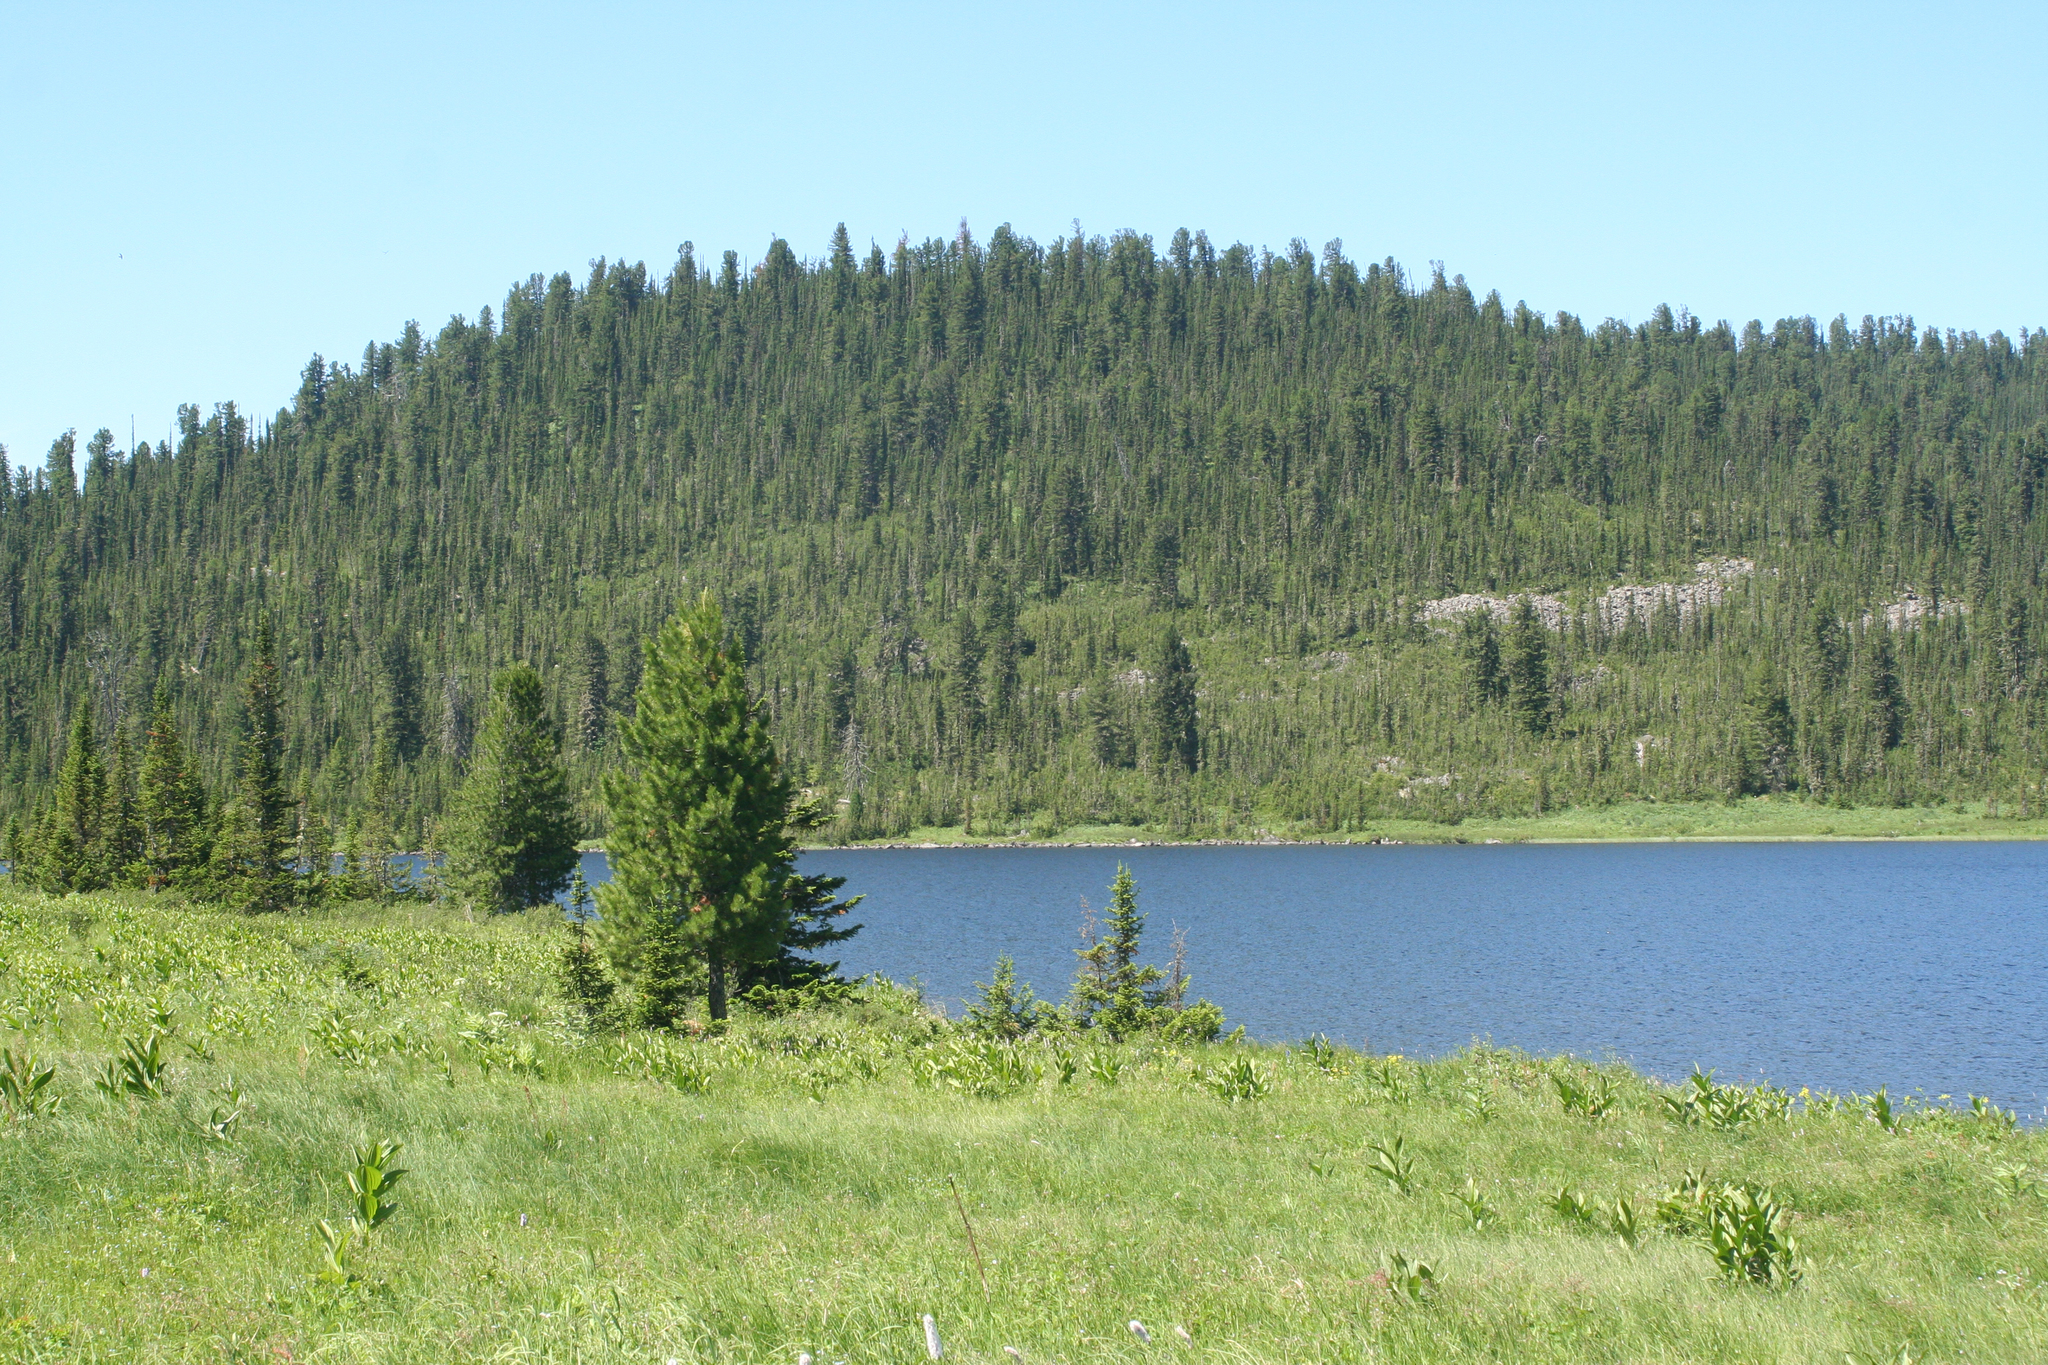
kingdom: Plantae
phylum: Tracheophyta
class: Pinopsida
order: Pinales
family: Pinaceae
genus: Pinus
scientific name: Pinus sibirica
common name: Siberian pine
